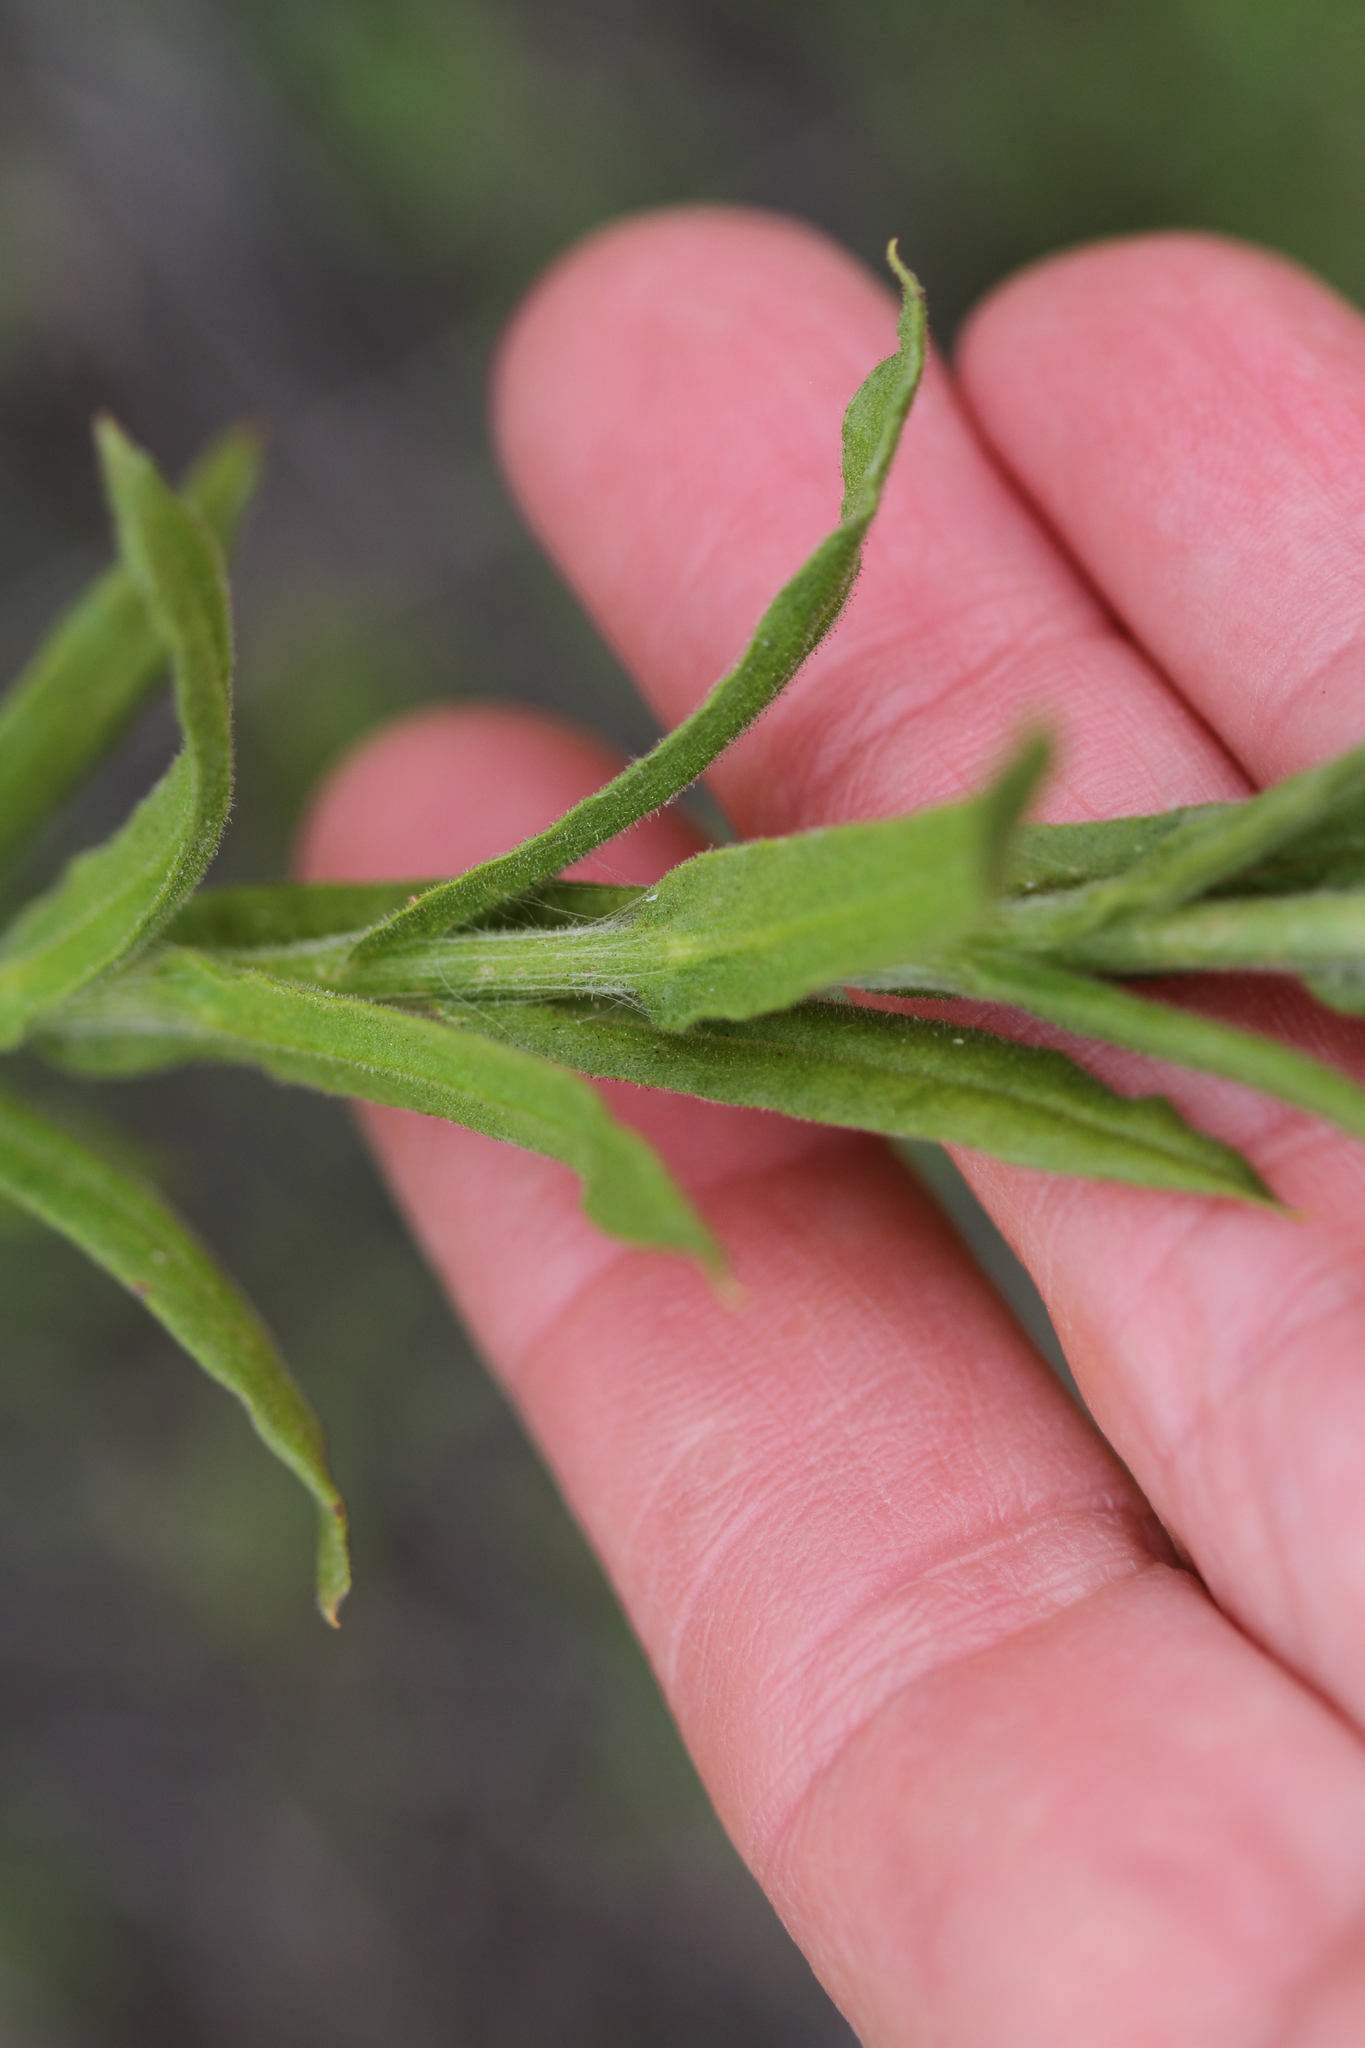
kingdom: Plantae
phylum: Tracheophyta
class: Magnoliopsida
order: Asterales
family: Asteraceae
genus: Pseudognaphalium
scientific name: Pseudognaphalium californicum
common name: California rabbit-tobacco
